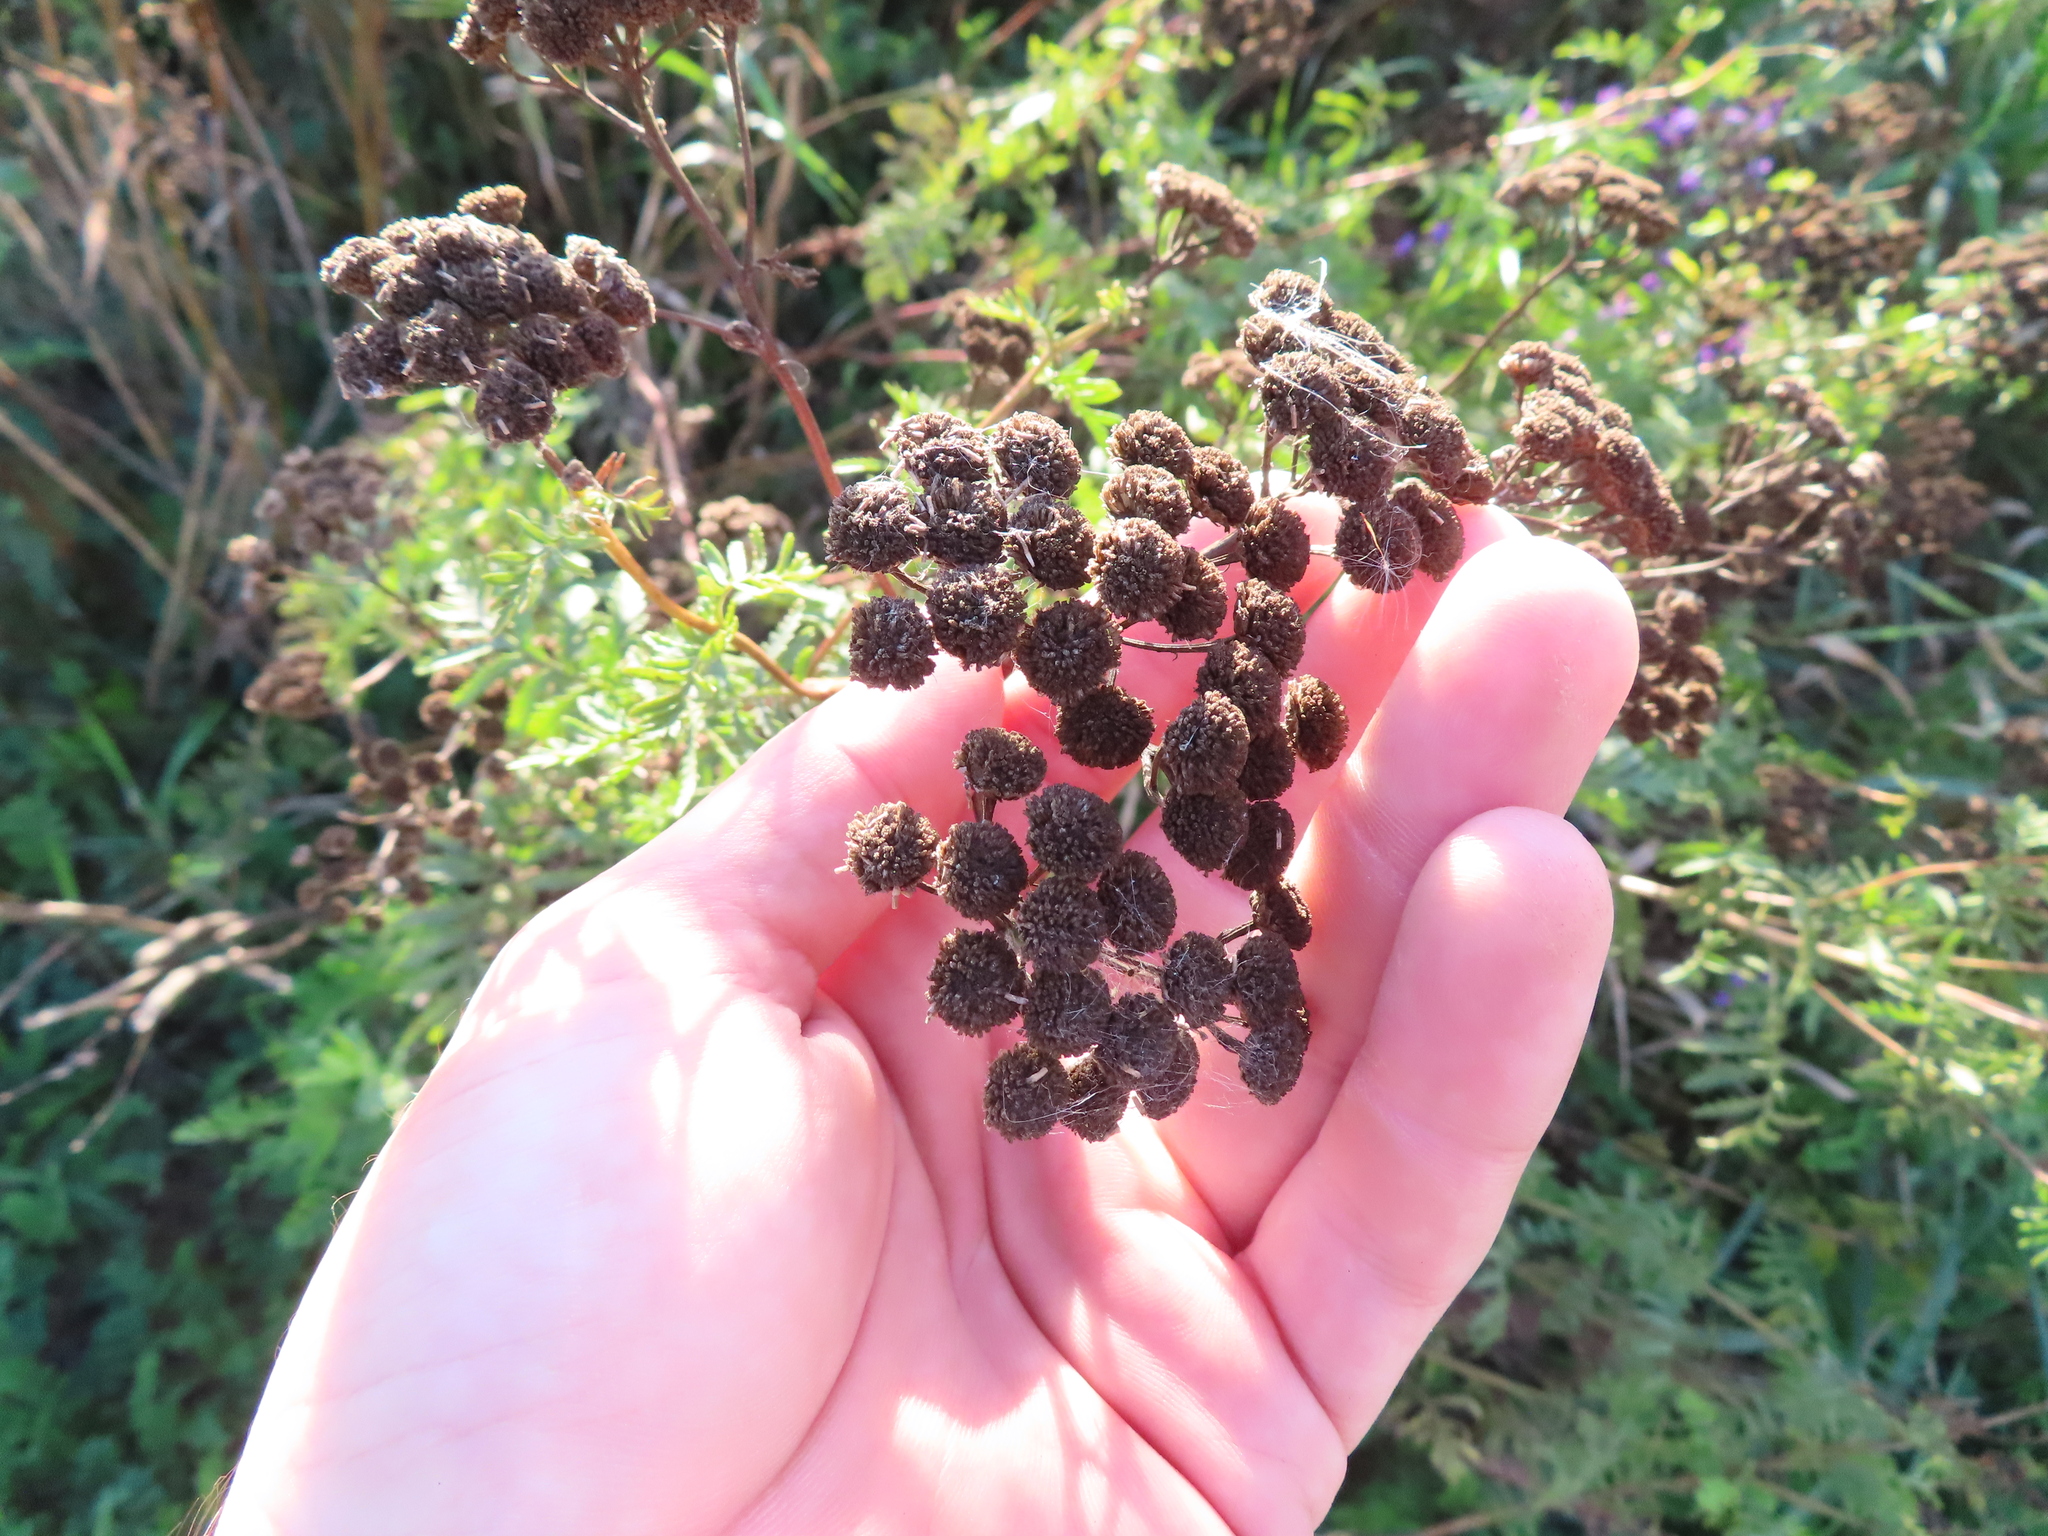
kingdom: Plantae
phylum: Tracheophyta
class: Magnoliopsida
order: Asterales
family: Asteraceae
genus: Tanacetum
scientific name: Tanacetum vulgare
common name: Common tansy
